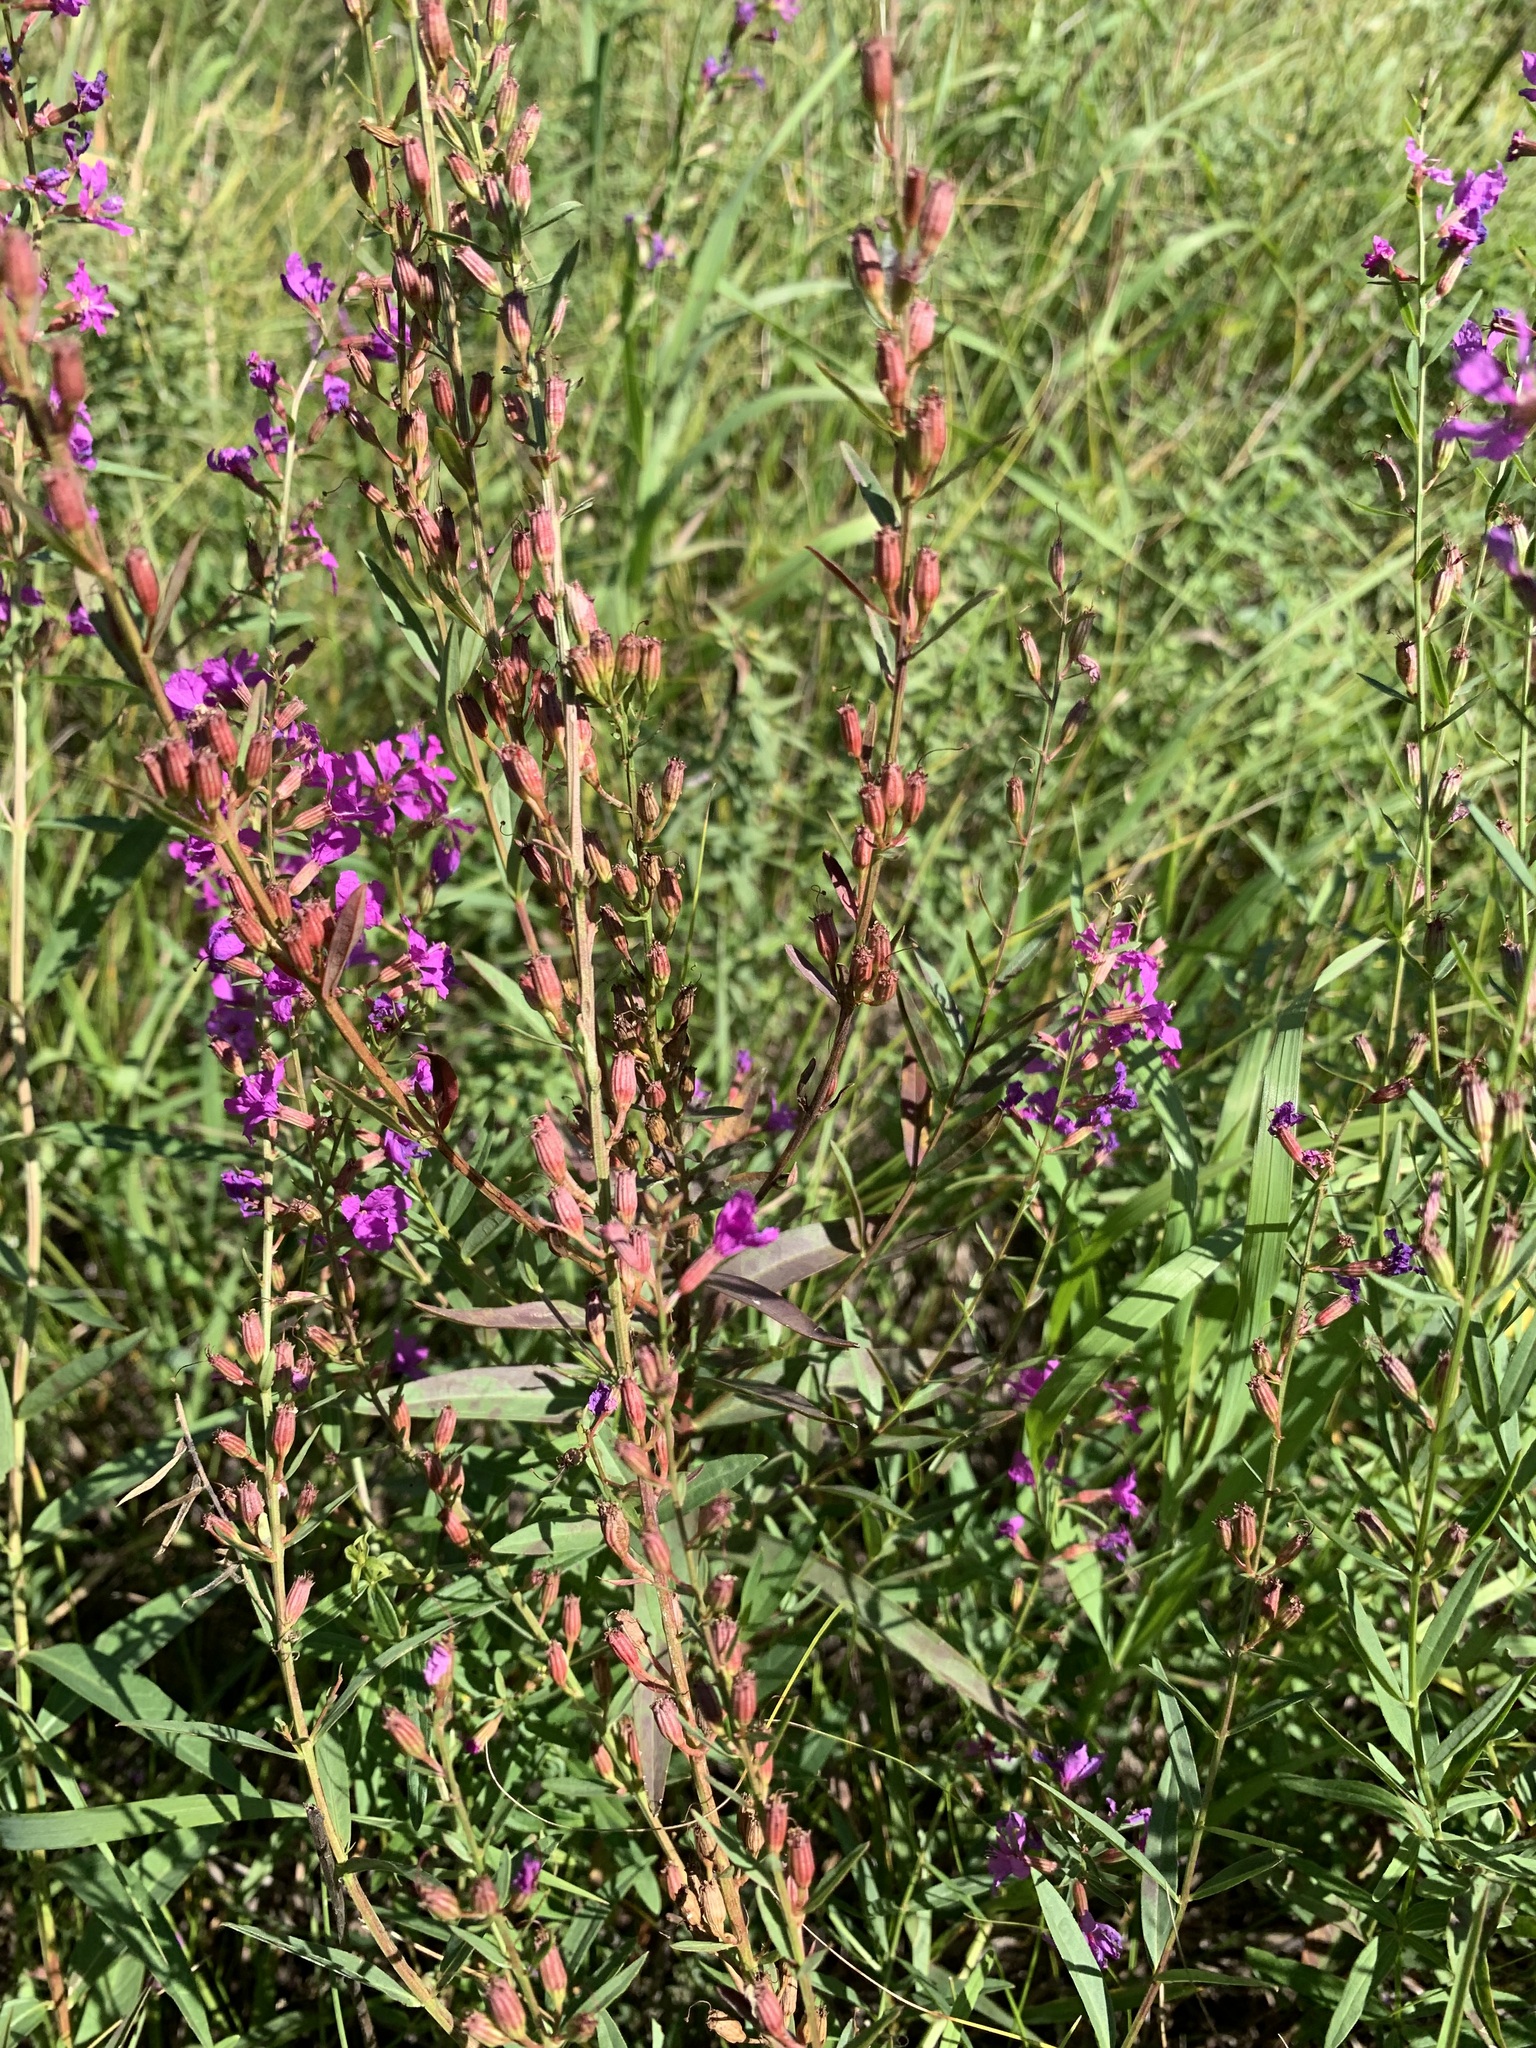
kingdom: Plantae
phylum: Tracheophyta
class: Magnoliopsida
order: Myrtales
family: Lythraceae
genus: Lythrum
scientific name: Lythrum virgatum
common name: European wand loosestrife
